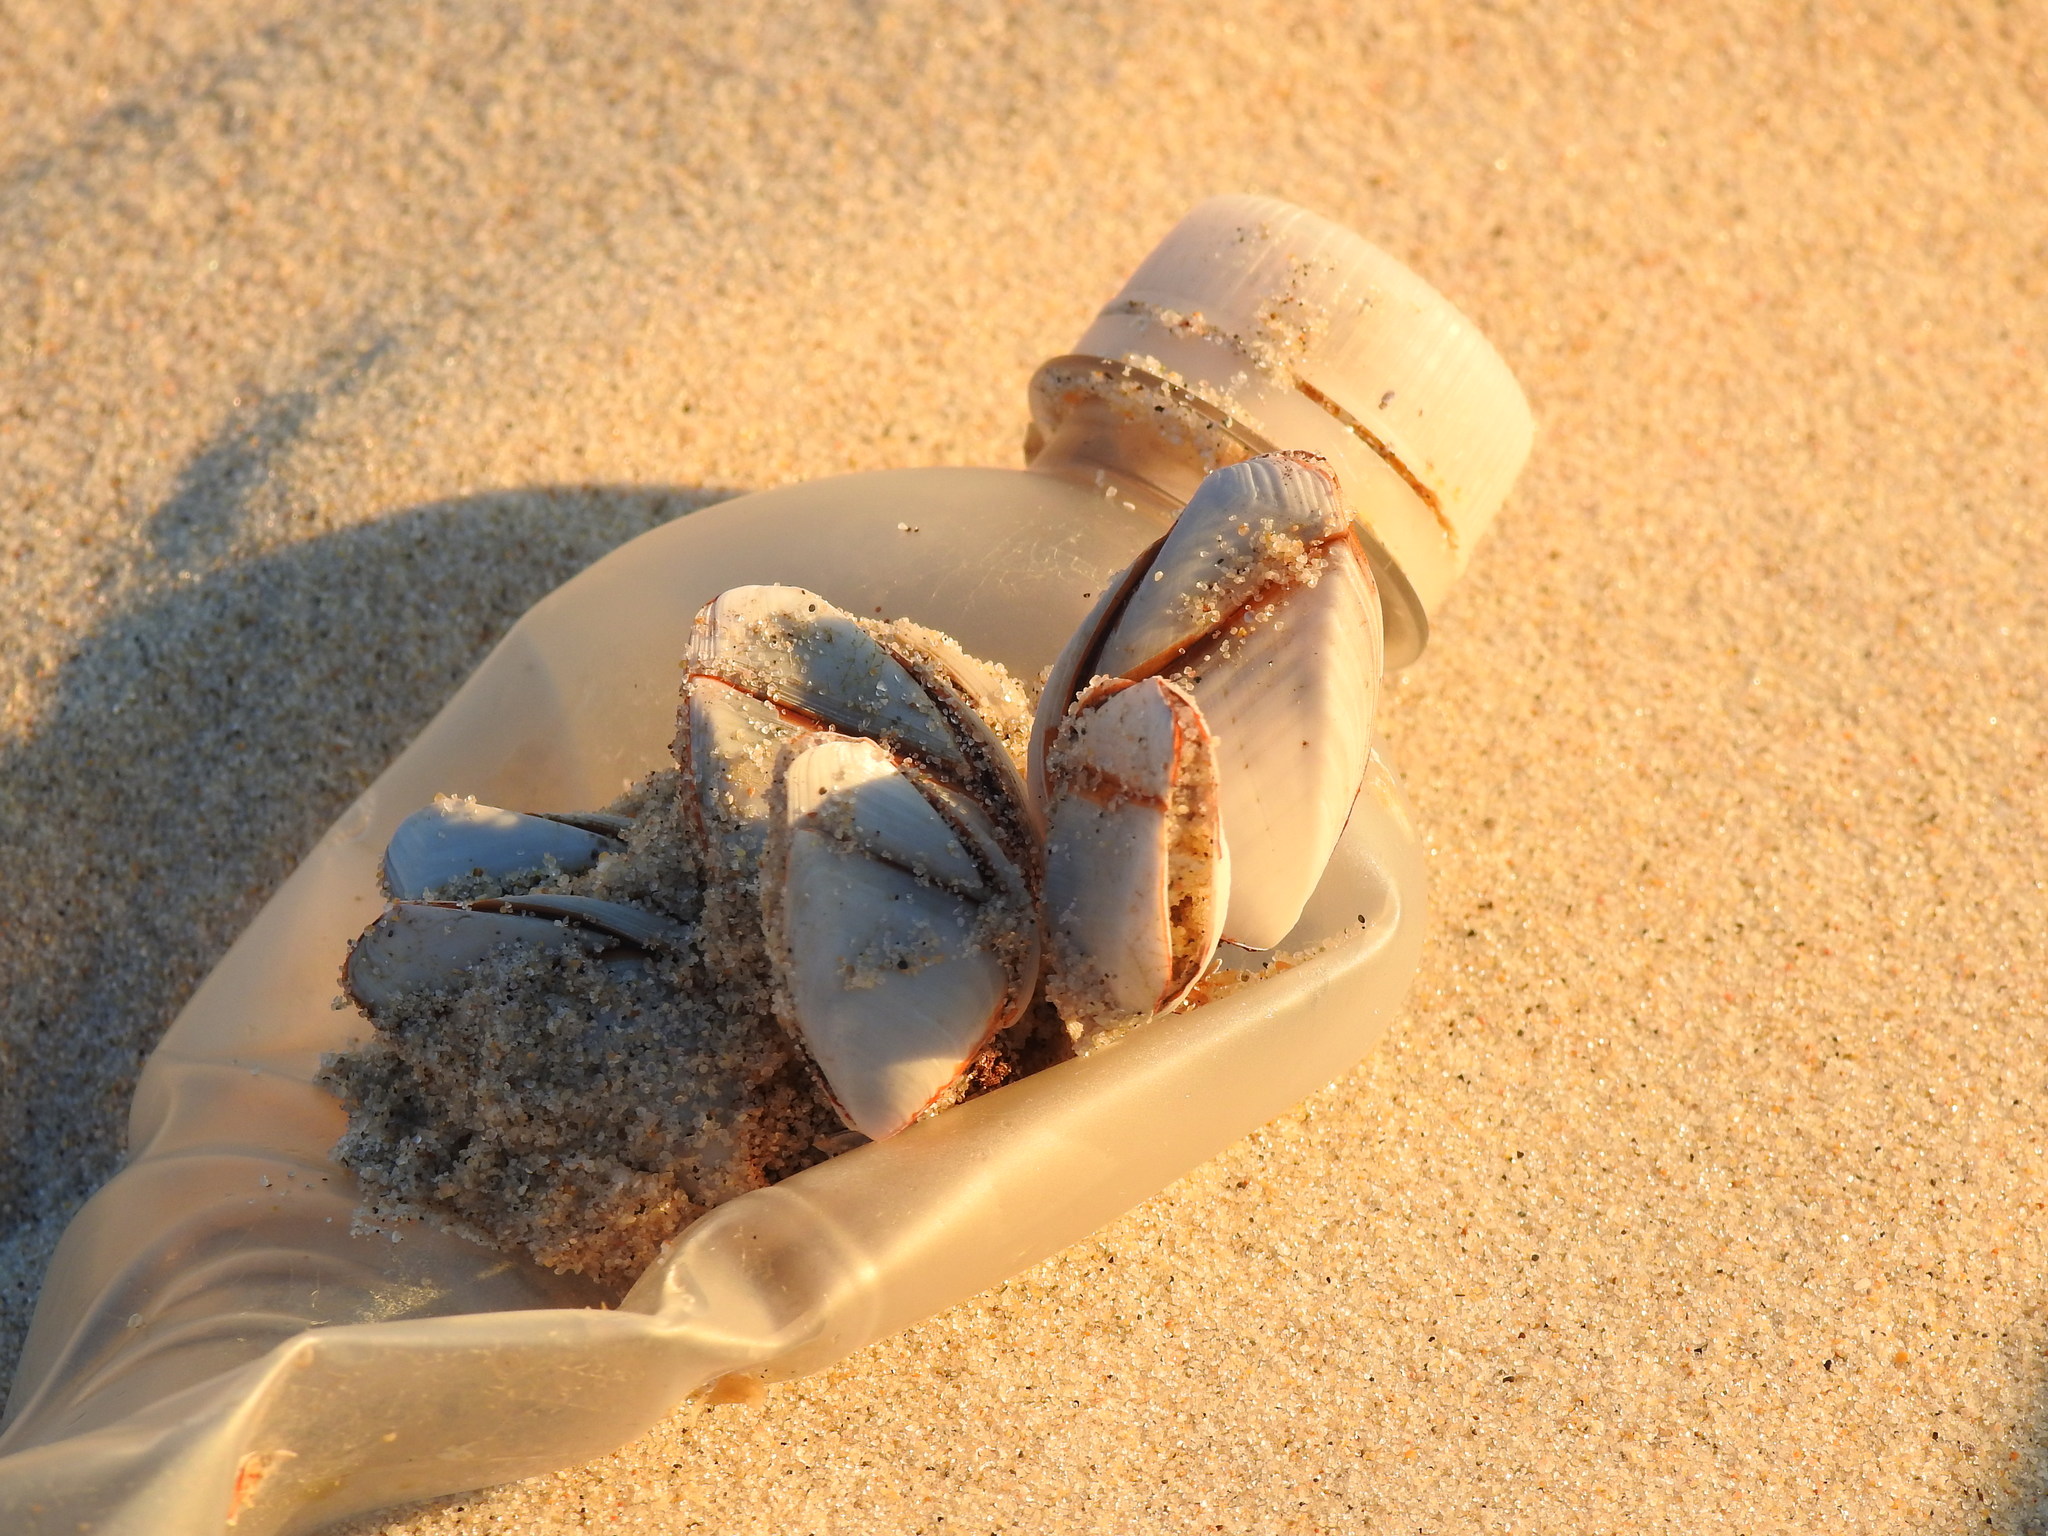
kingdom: Animalia
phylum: Arthropoda
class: Maxillopoda
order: Pedunculata
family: Lepadidae
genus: Lepas
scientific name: Lepas anatifera
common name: Common goose barnacle
